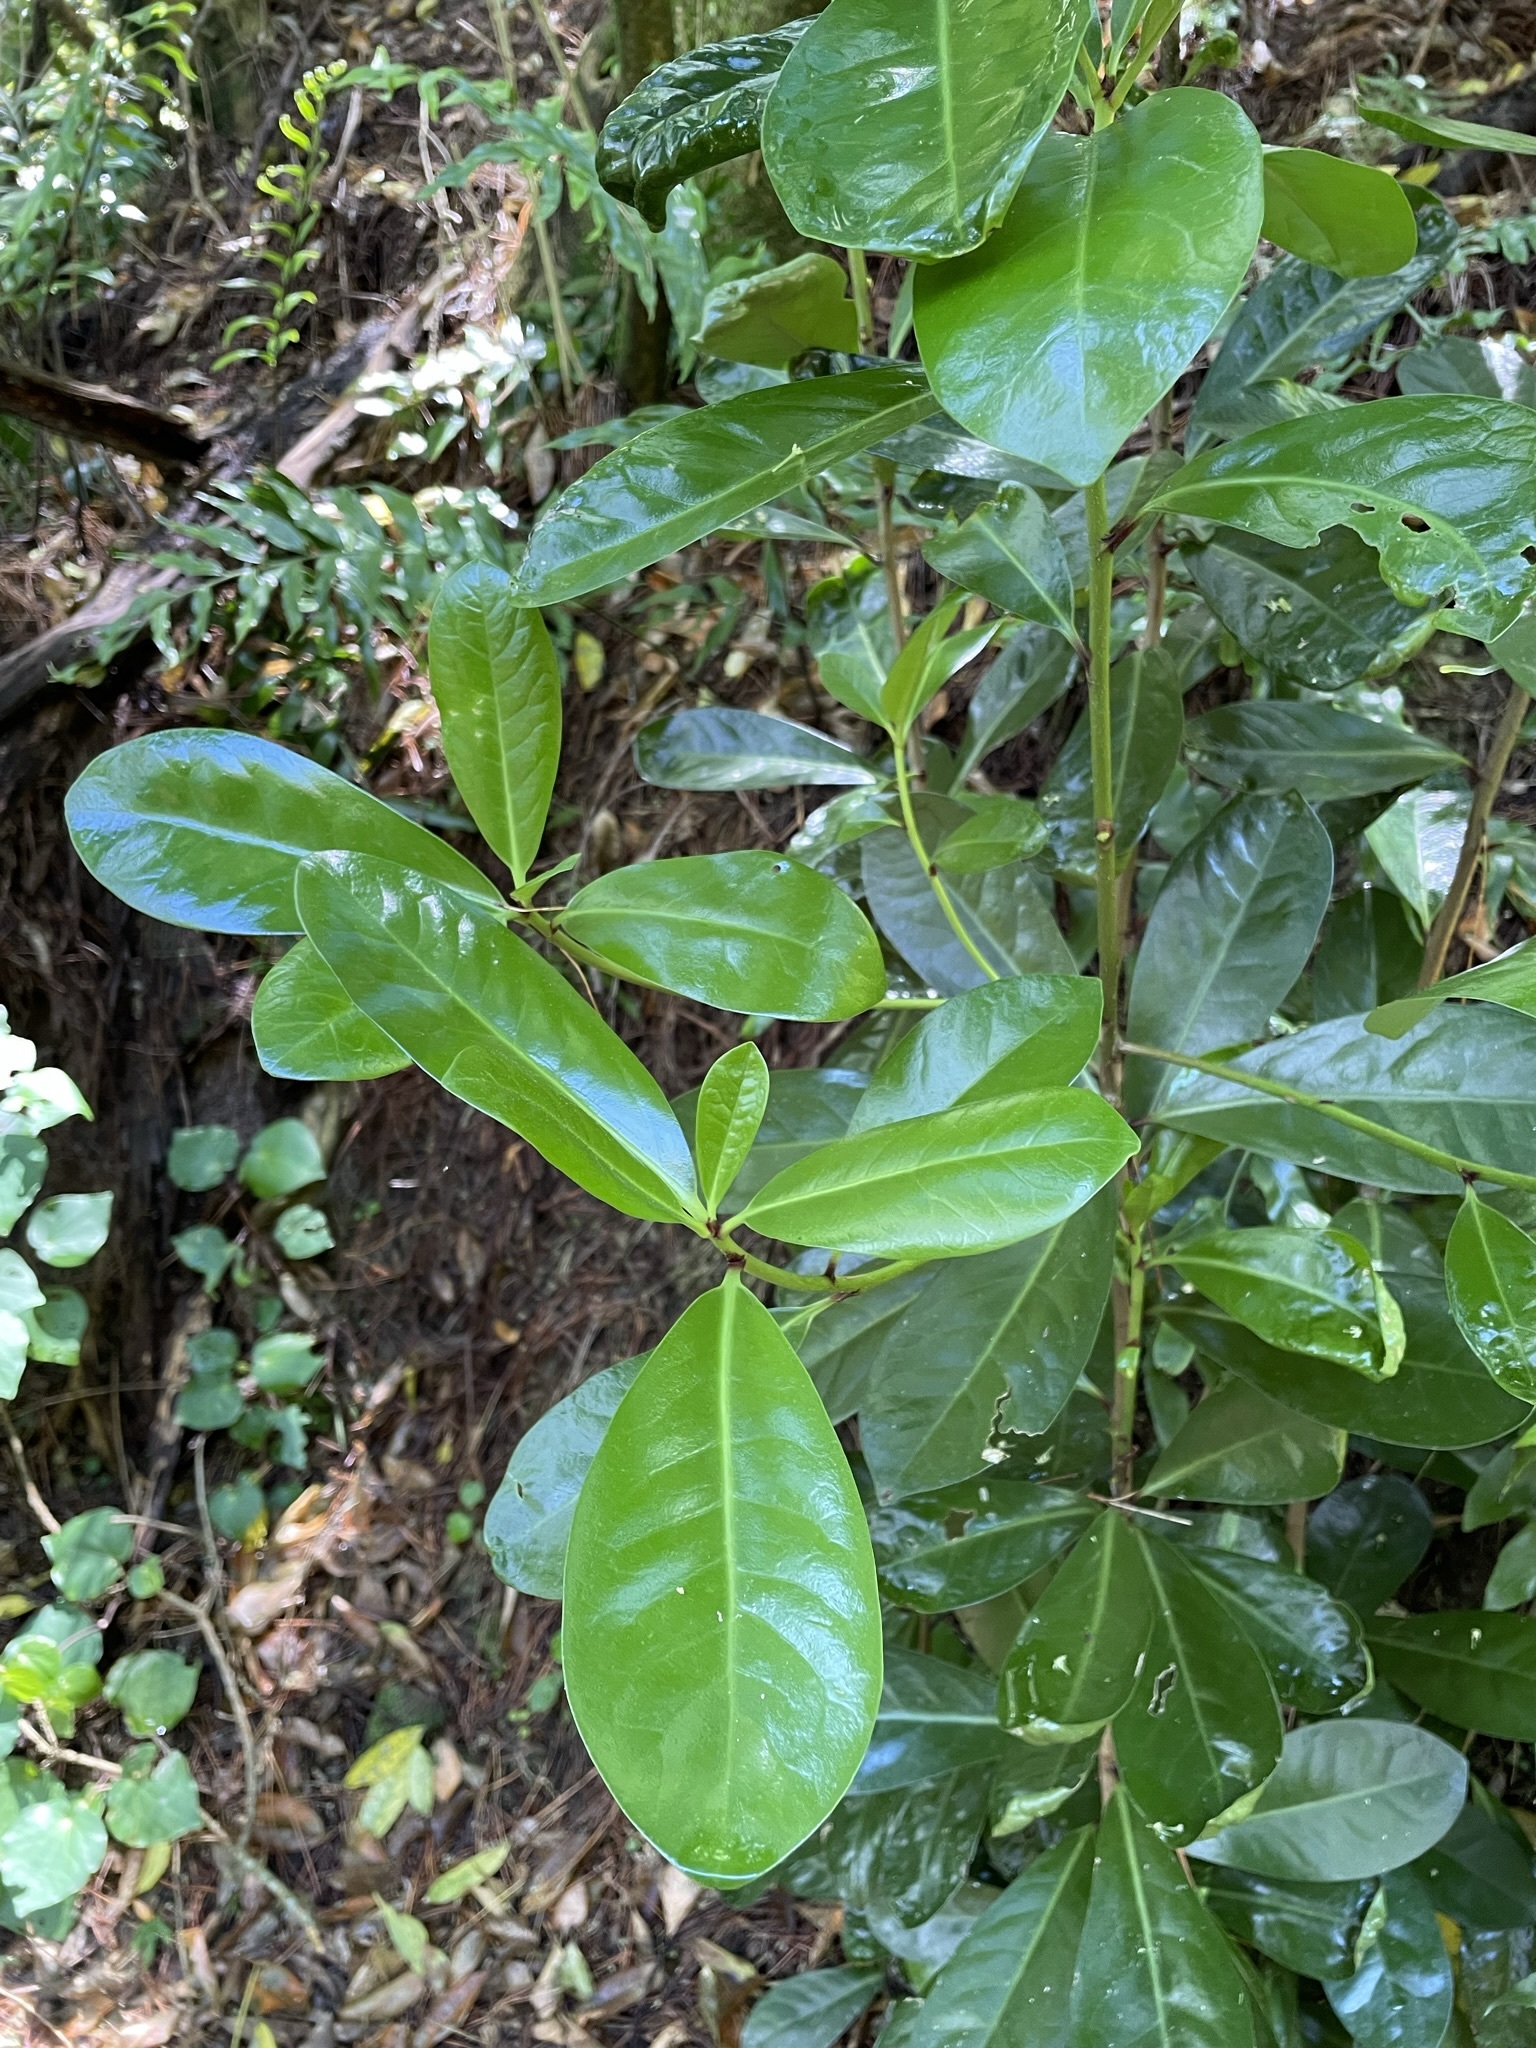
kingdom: Plantae
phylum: Tracheophyta
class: Magnoliopsida
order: Cucurbitales
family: Corynocarpaceae
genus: Corynocarpus
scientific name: Corynocarpus laevigatus
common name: New zealand laurel
